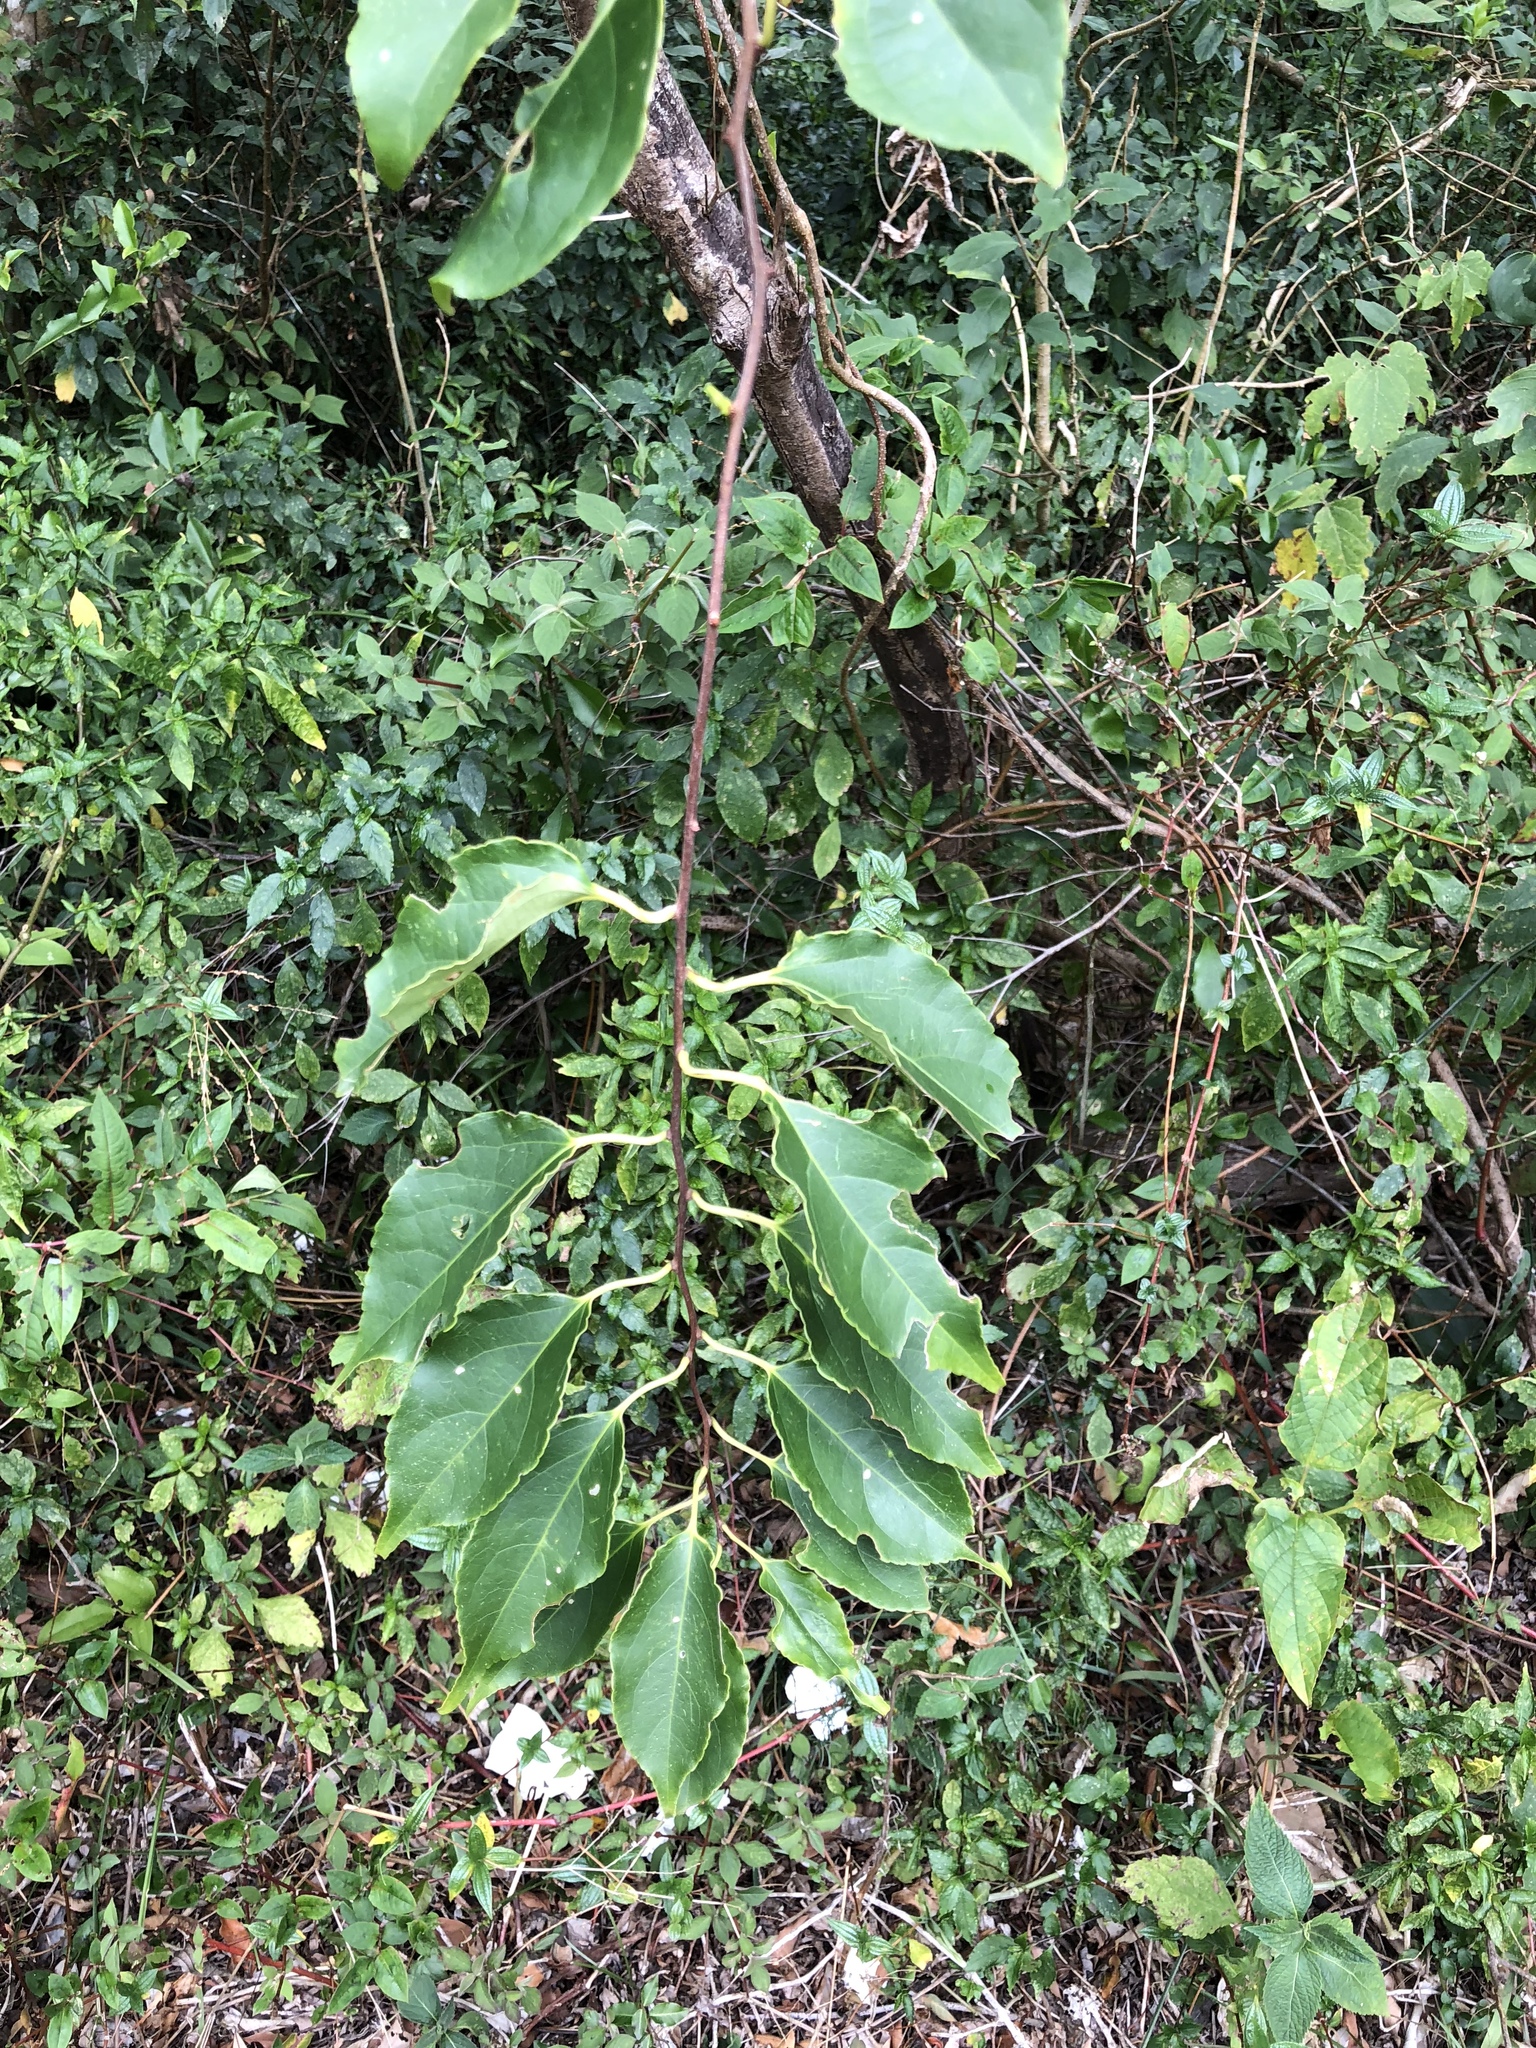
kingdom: Plantae
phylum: Tracheophyta
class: Magnoliopsida
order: Celastrales
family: Celastraceae
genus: Celastrus
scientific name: Celastrus punctatus
